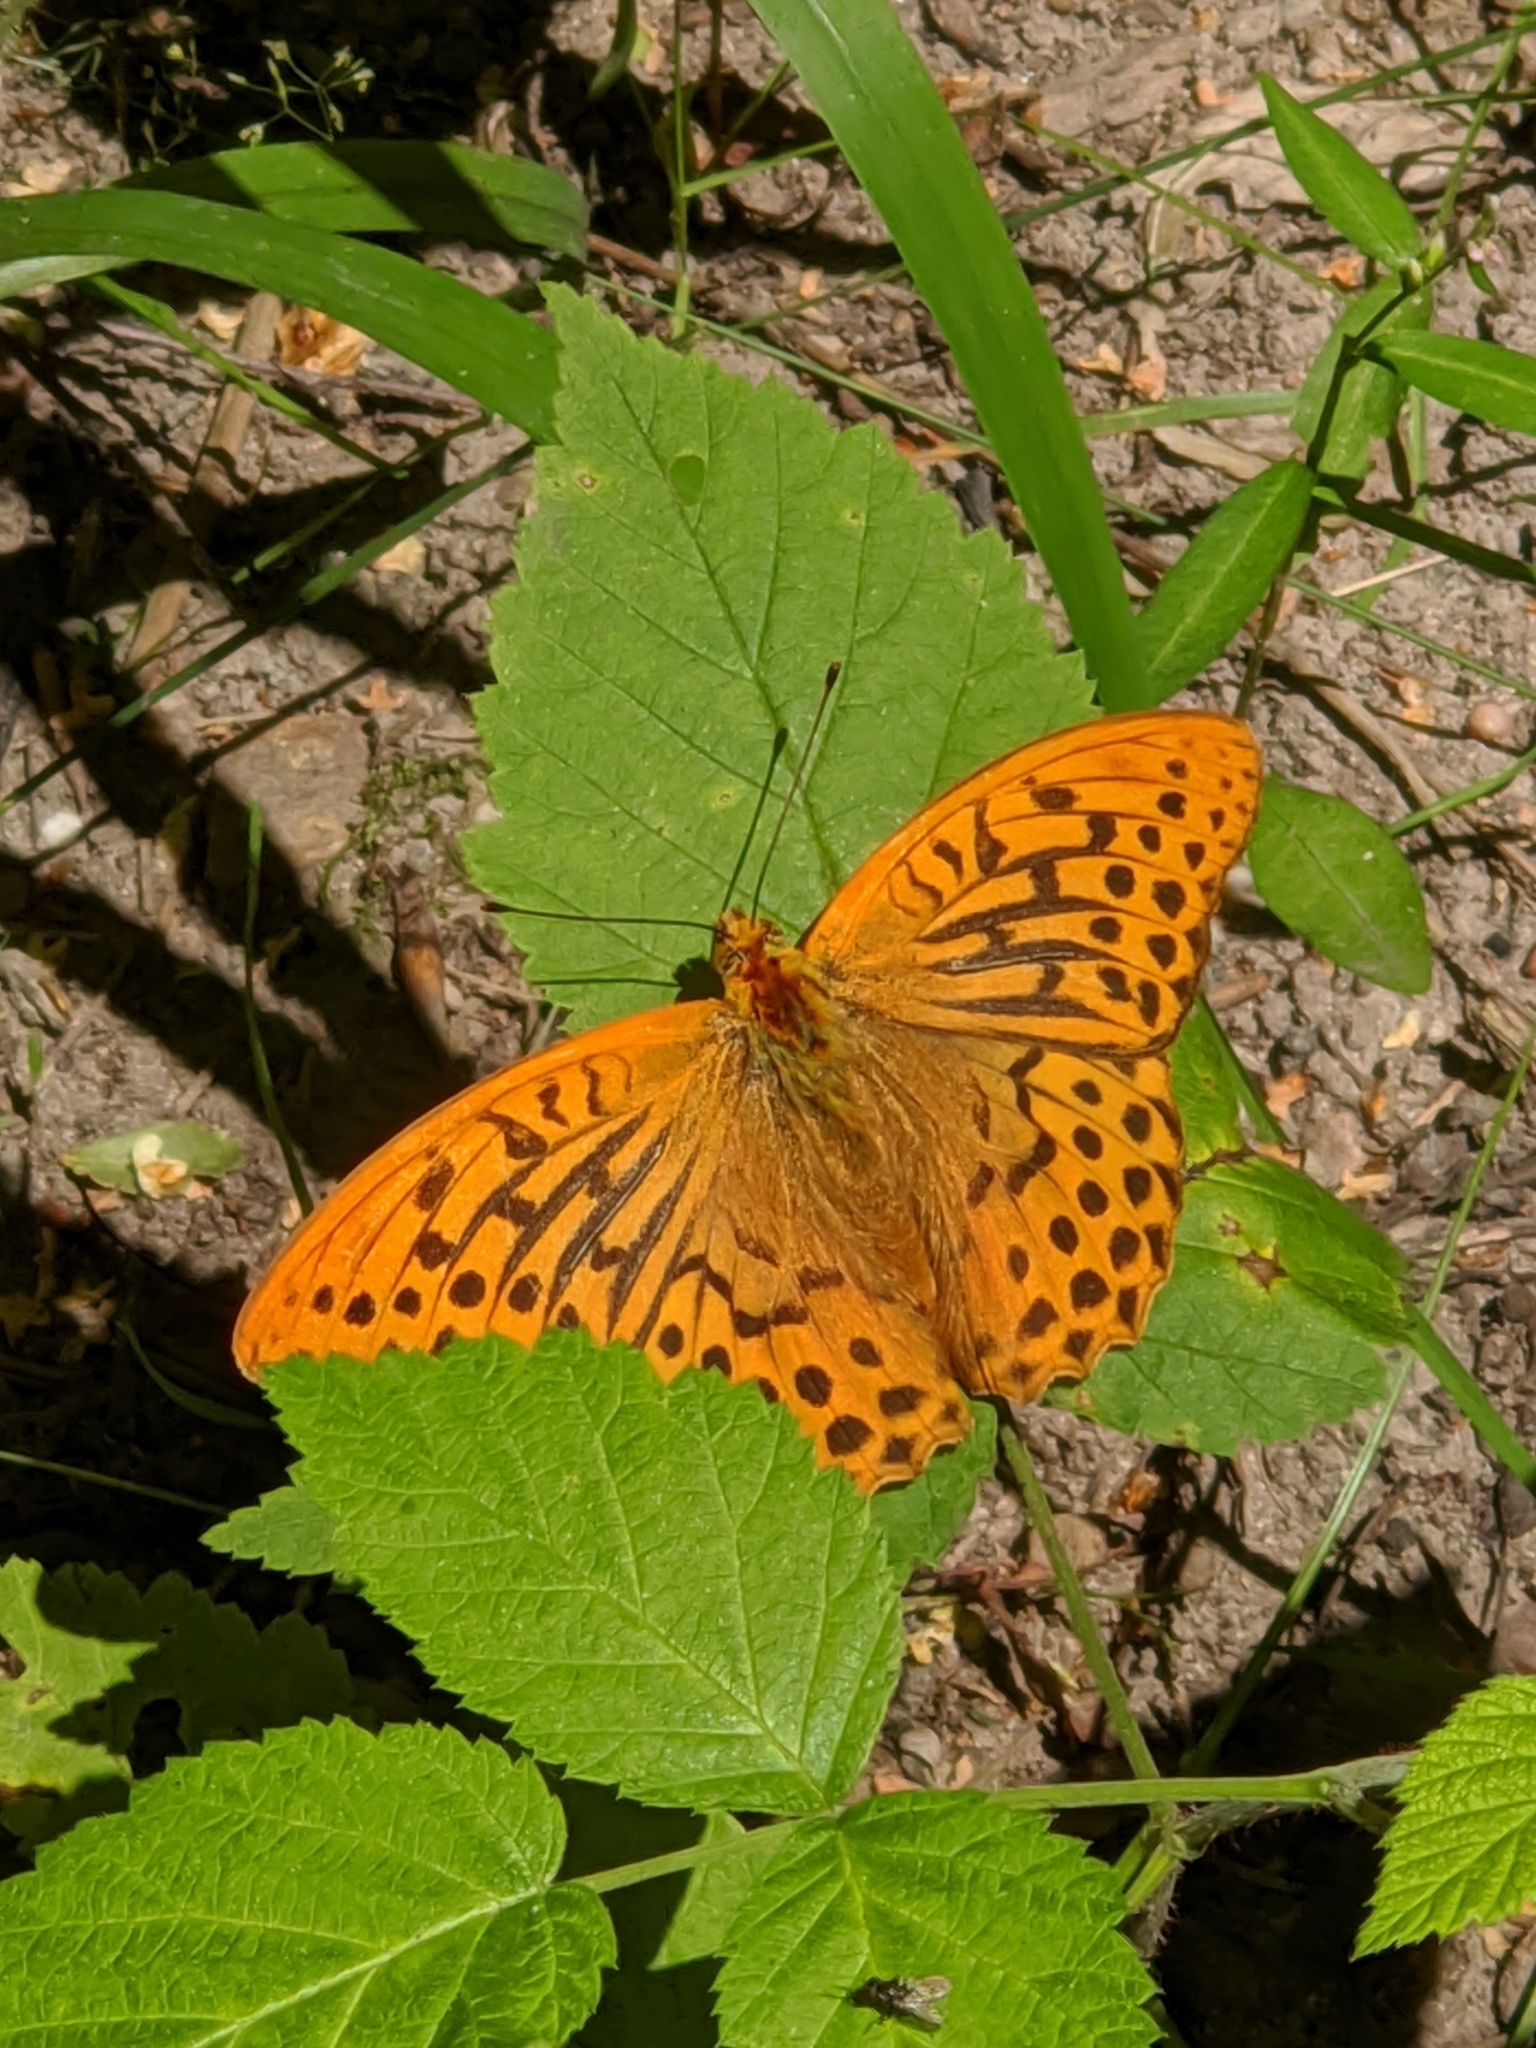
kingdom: Animalia
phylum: Arthropoda
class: Insecta
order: Lepidoptera
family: Nymphalidae
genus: Argynnis
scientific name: Argynnis paphia
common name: Silver-washed fritillary
